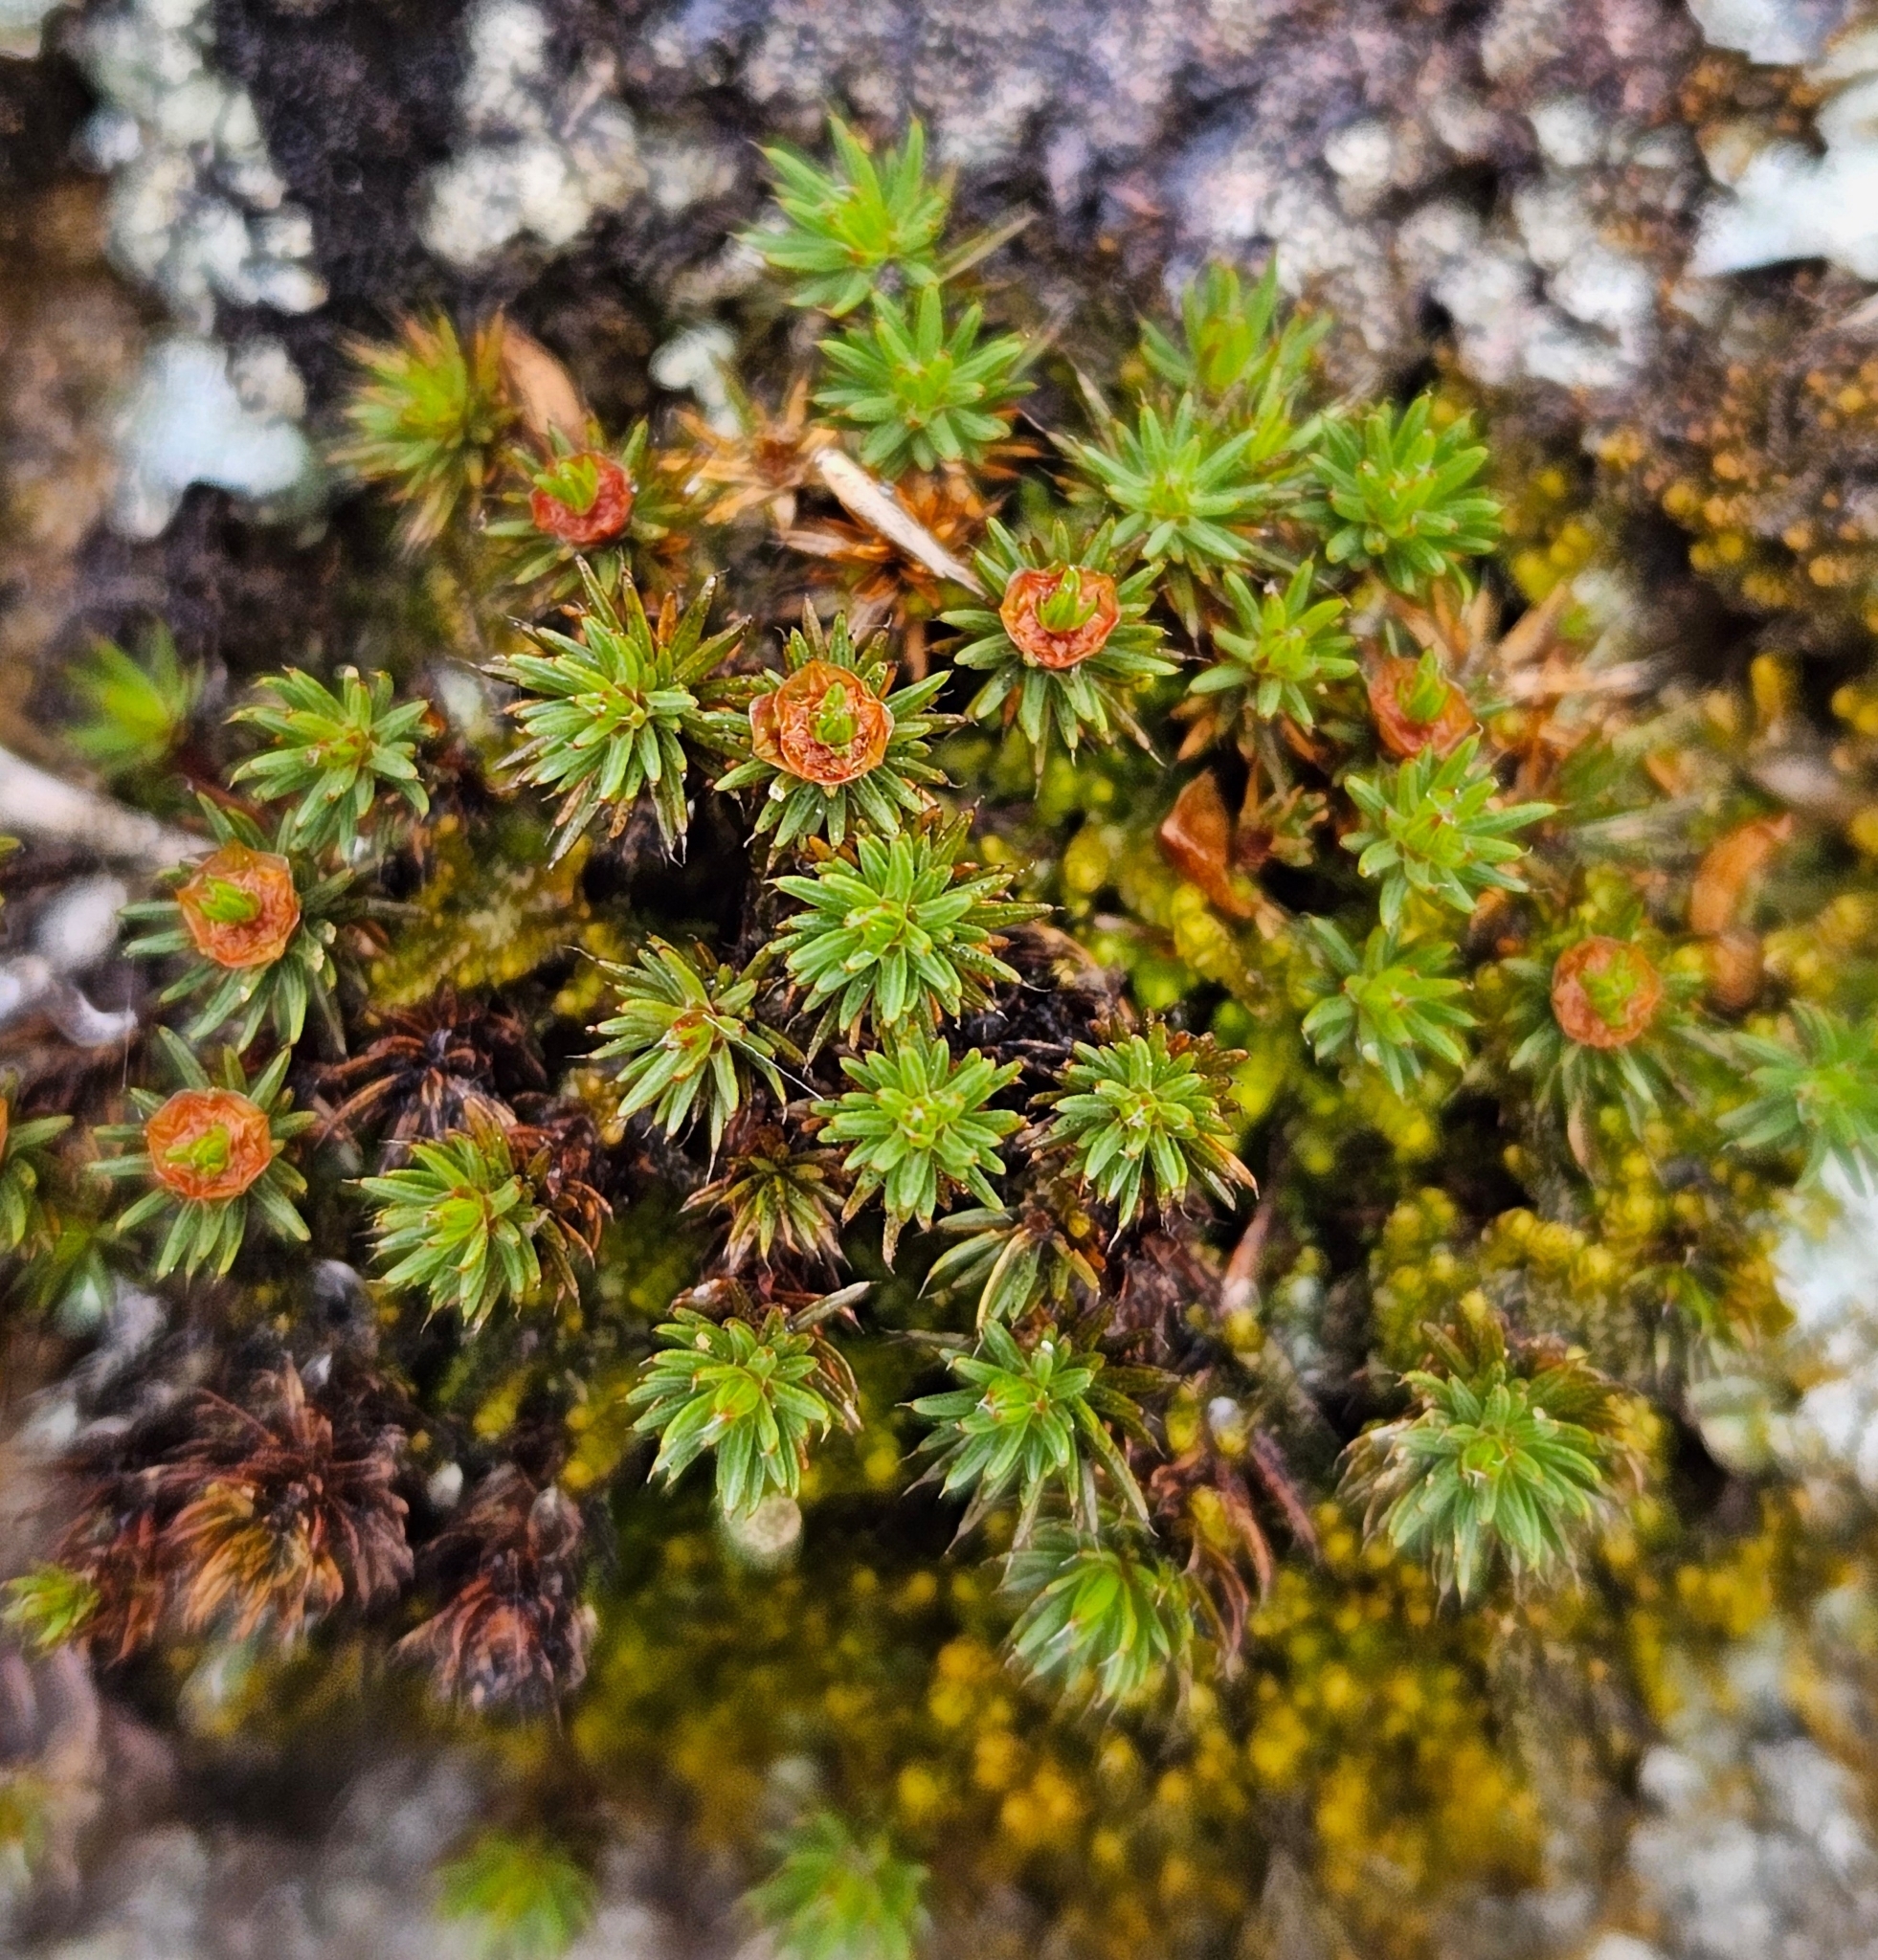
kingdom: Plantae
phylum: Bryophyta
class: Polytrichopsida
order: Polytrichales
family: Polytrichaceae
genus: Polytrichum
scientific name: Polytrichum piliferum
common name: Bristly haircap
